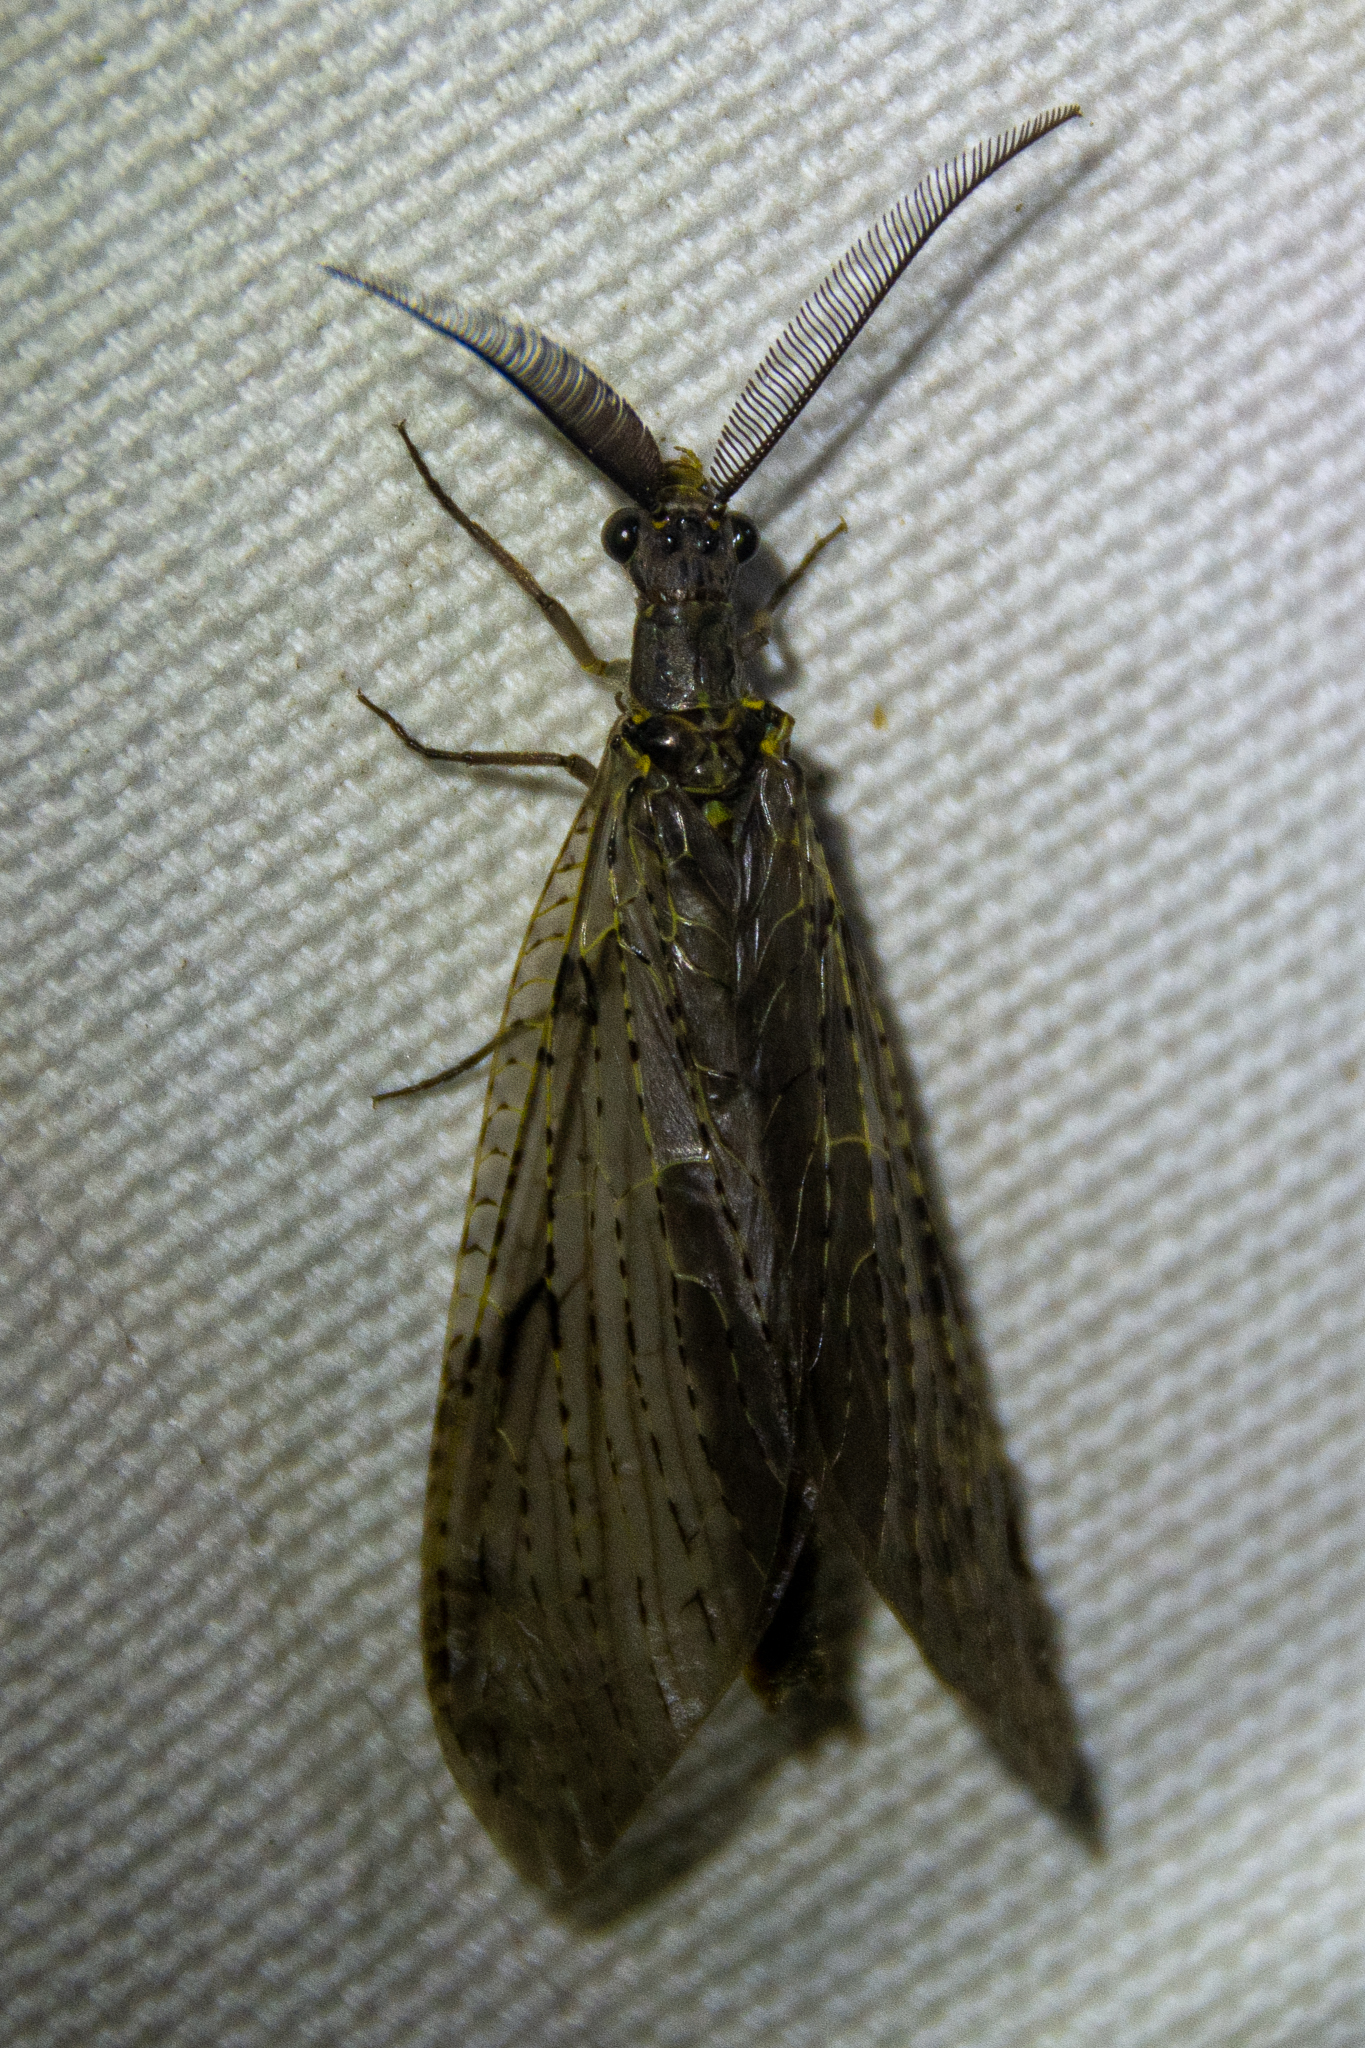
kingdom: Animalia
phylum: Arthropoda
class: Insecta
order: Megaloptera
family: Corydalidae
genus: Chauliodes
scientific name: Chauliodes rastricornis
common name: Spring fishfly
